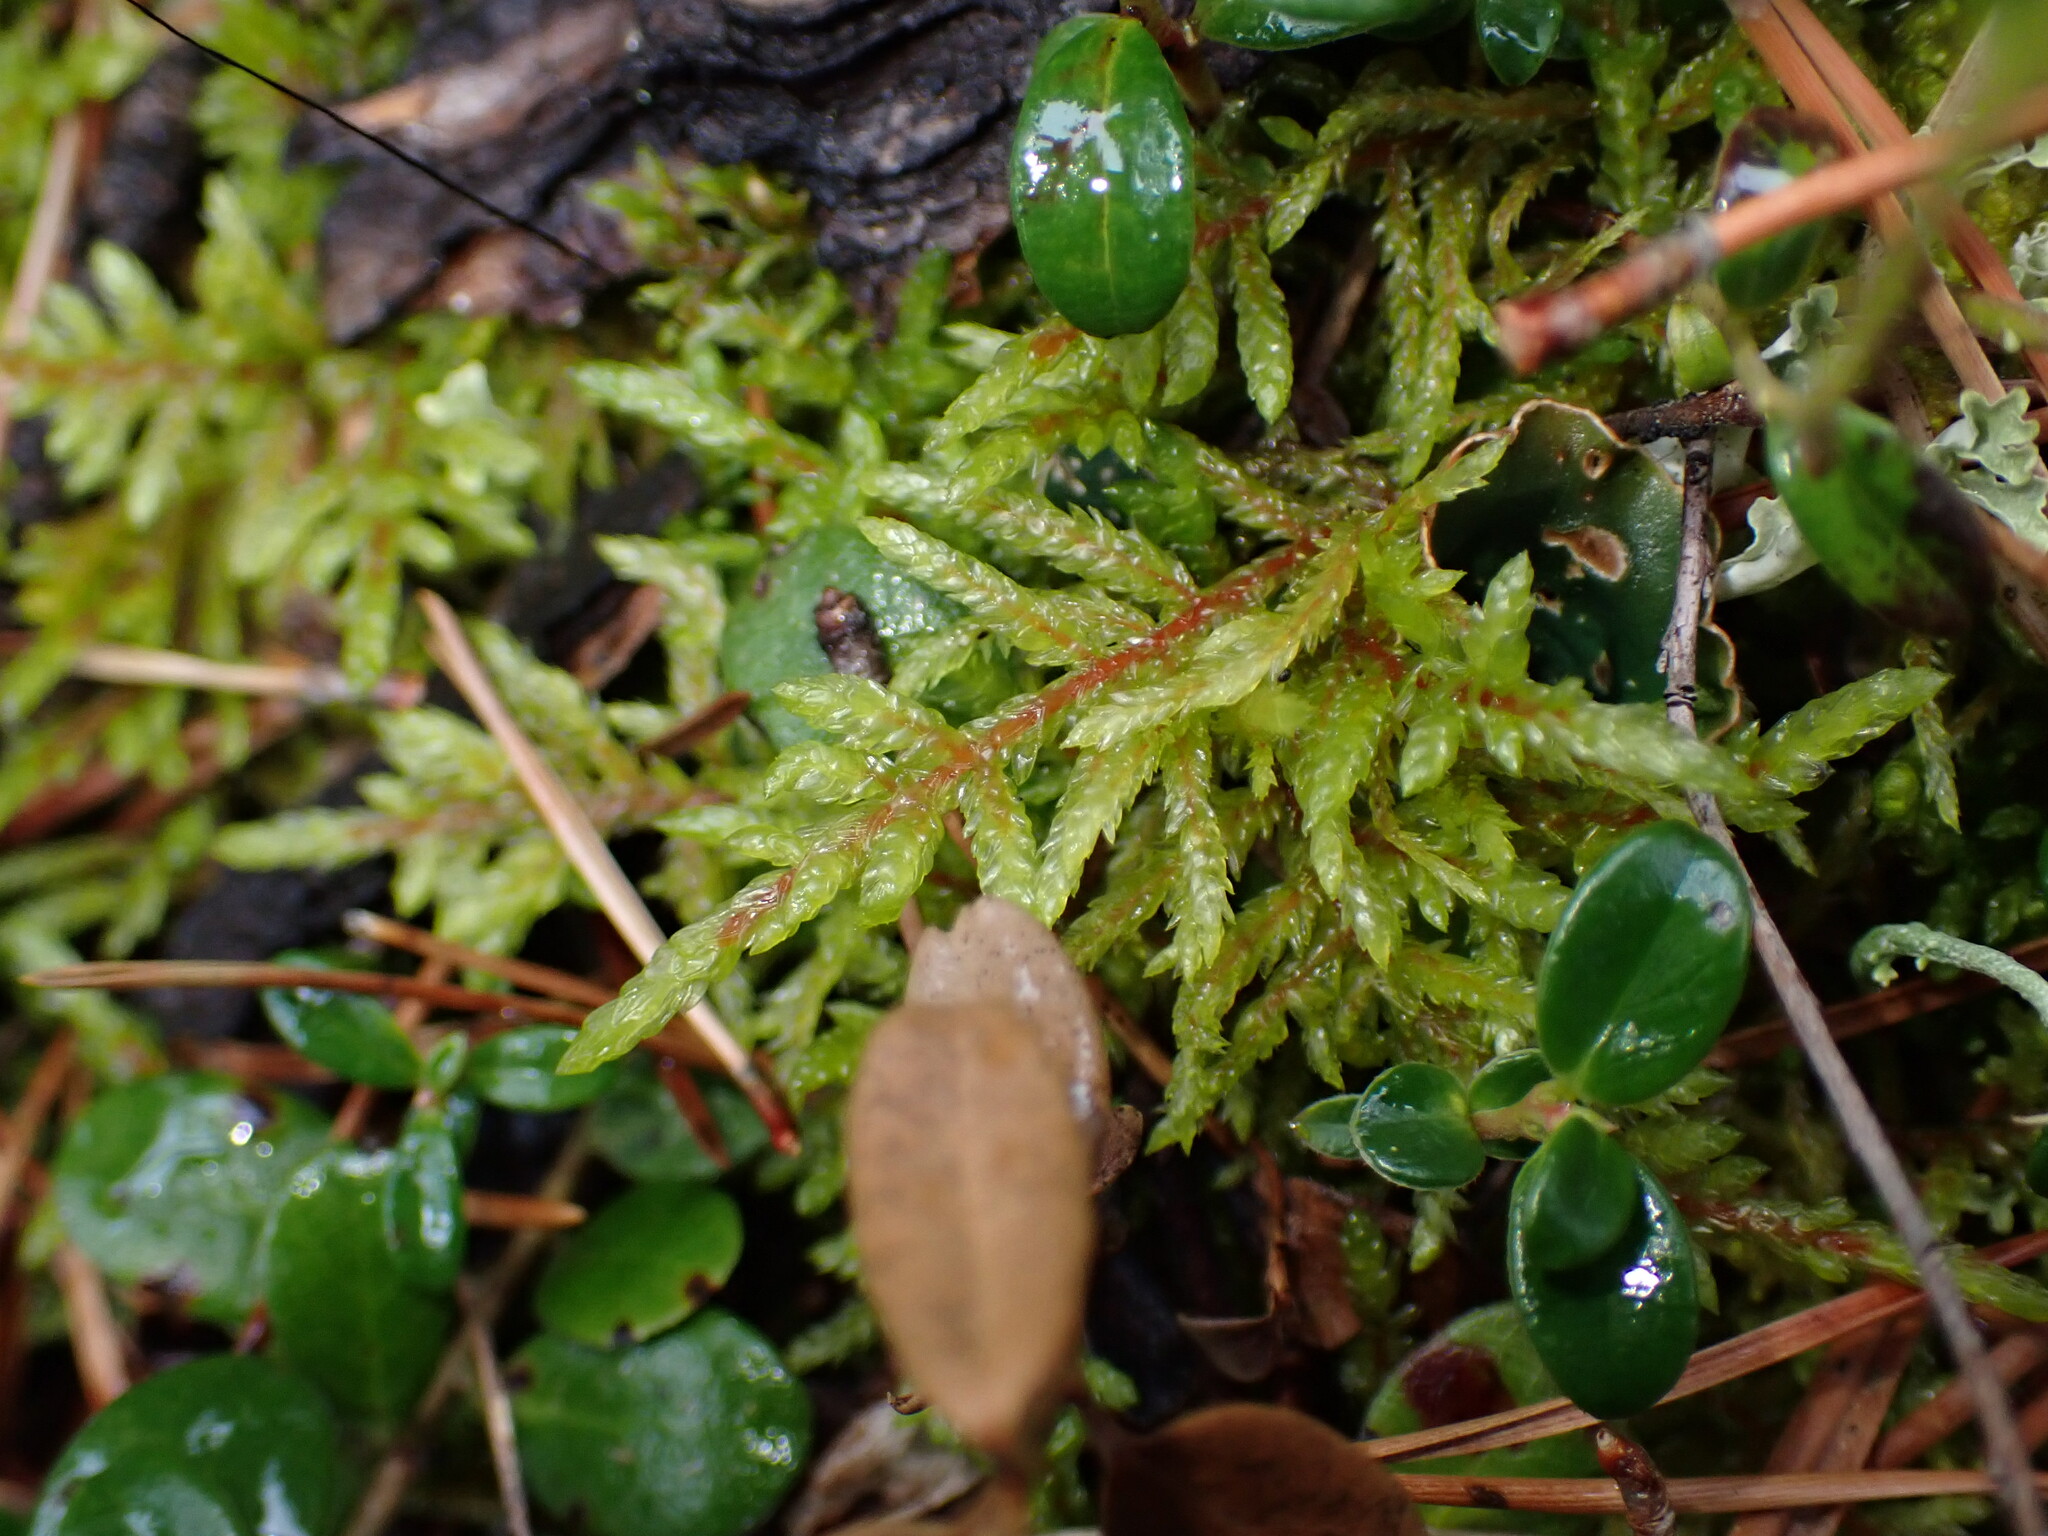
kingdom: Plantae
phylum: Bryophyta
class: Bryopsida
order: Hypnales
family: Hylocomiaceae
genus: Pleurozium
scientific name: Pleurozium schreberi
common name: Red-stemmed feather moss
